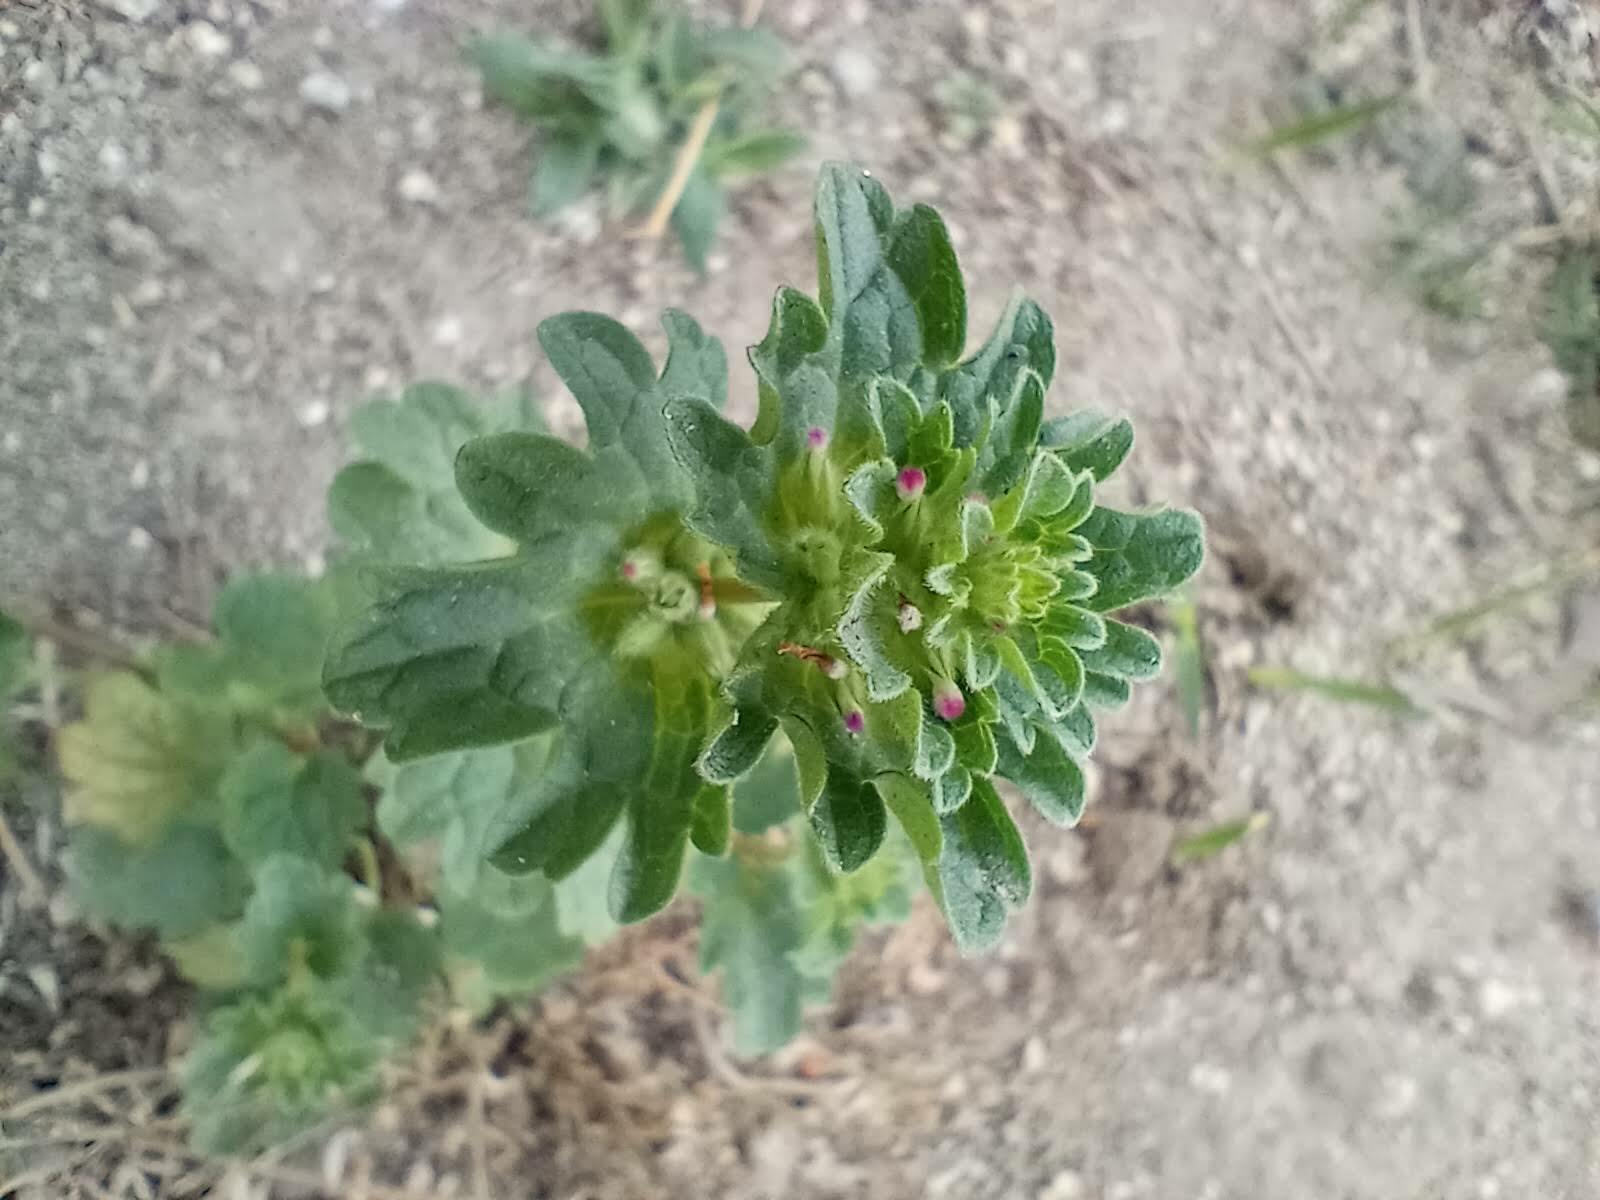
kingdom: Plantae
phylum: Tracheophyta
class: Magnoliopsida
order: Lamiales
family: Lamiaceae
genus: Lamium
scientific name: Lamium amplexicaule
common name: Henbit dead-nettle
